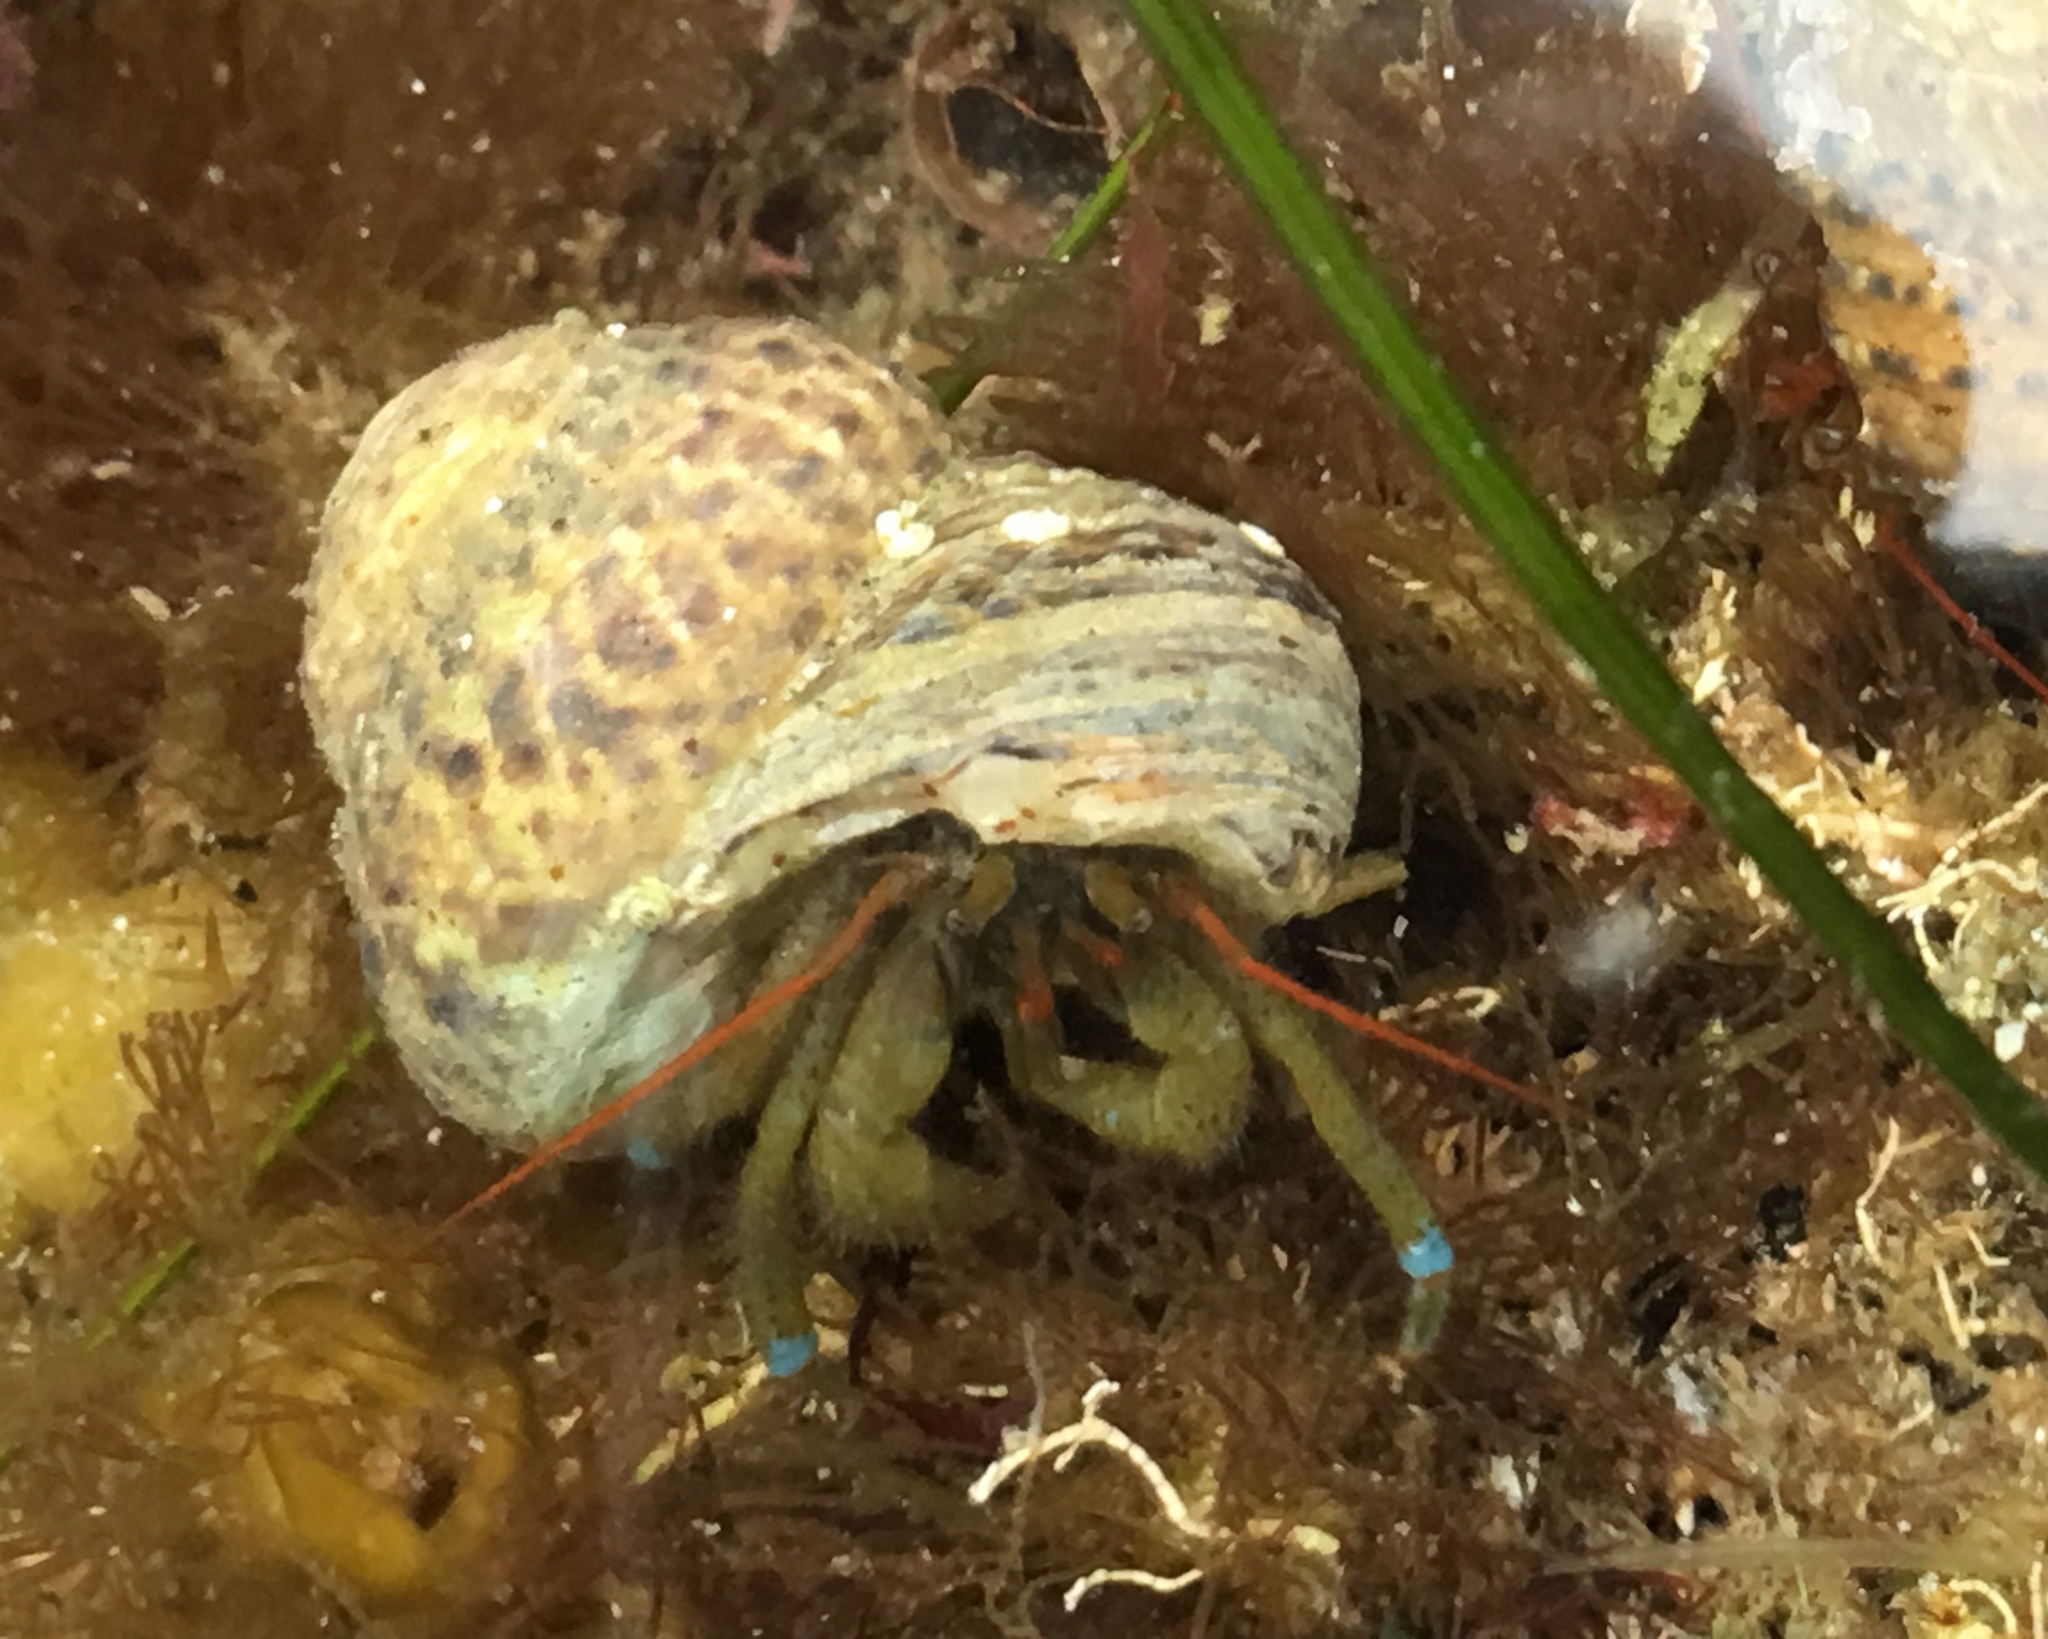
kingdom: Animalia
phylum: Arthropoda
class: Malacostraca
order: Decapoda
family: Paguridae
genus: Pagurus
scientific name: Pagurus samuelis
